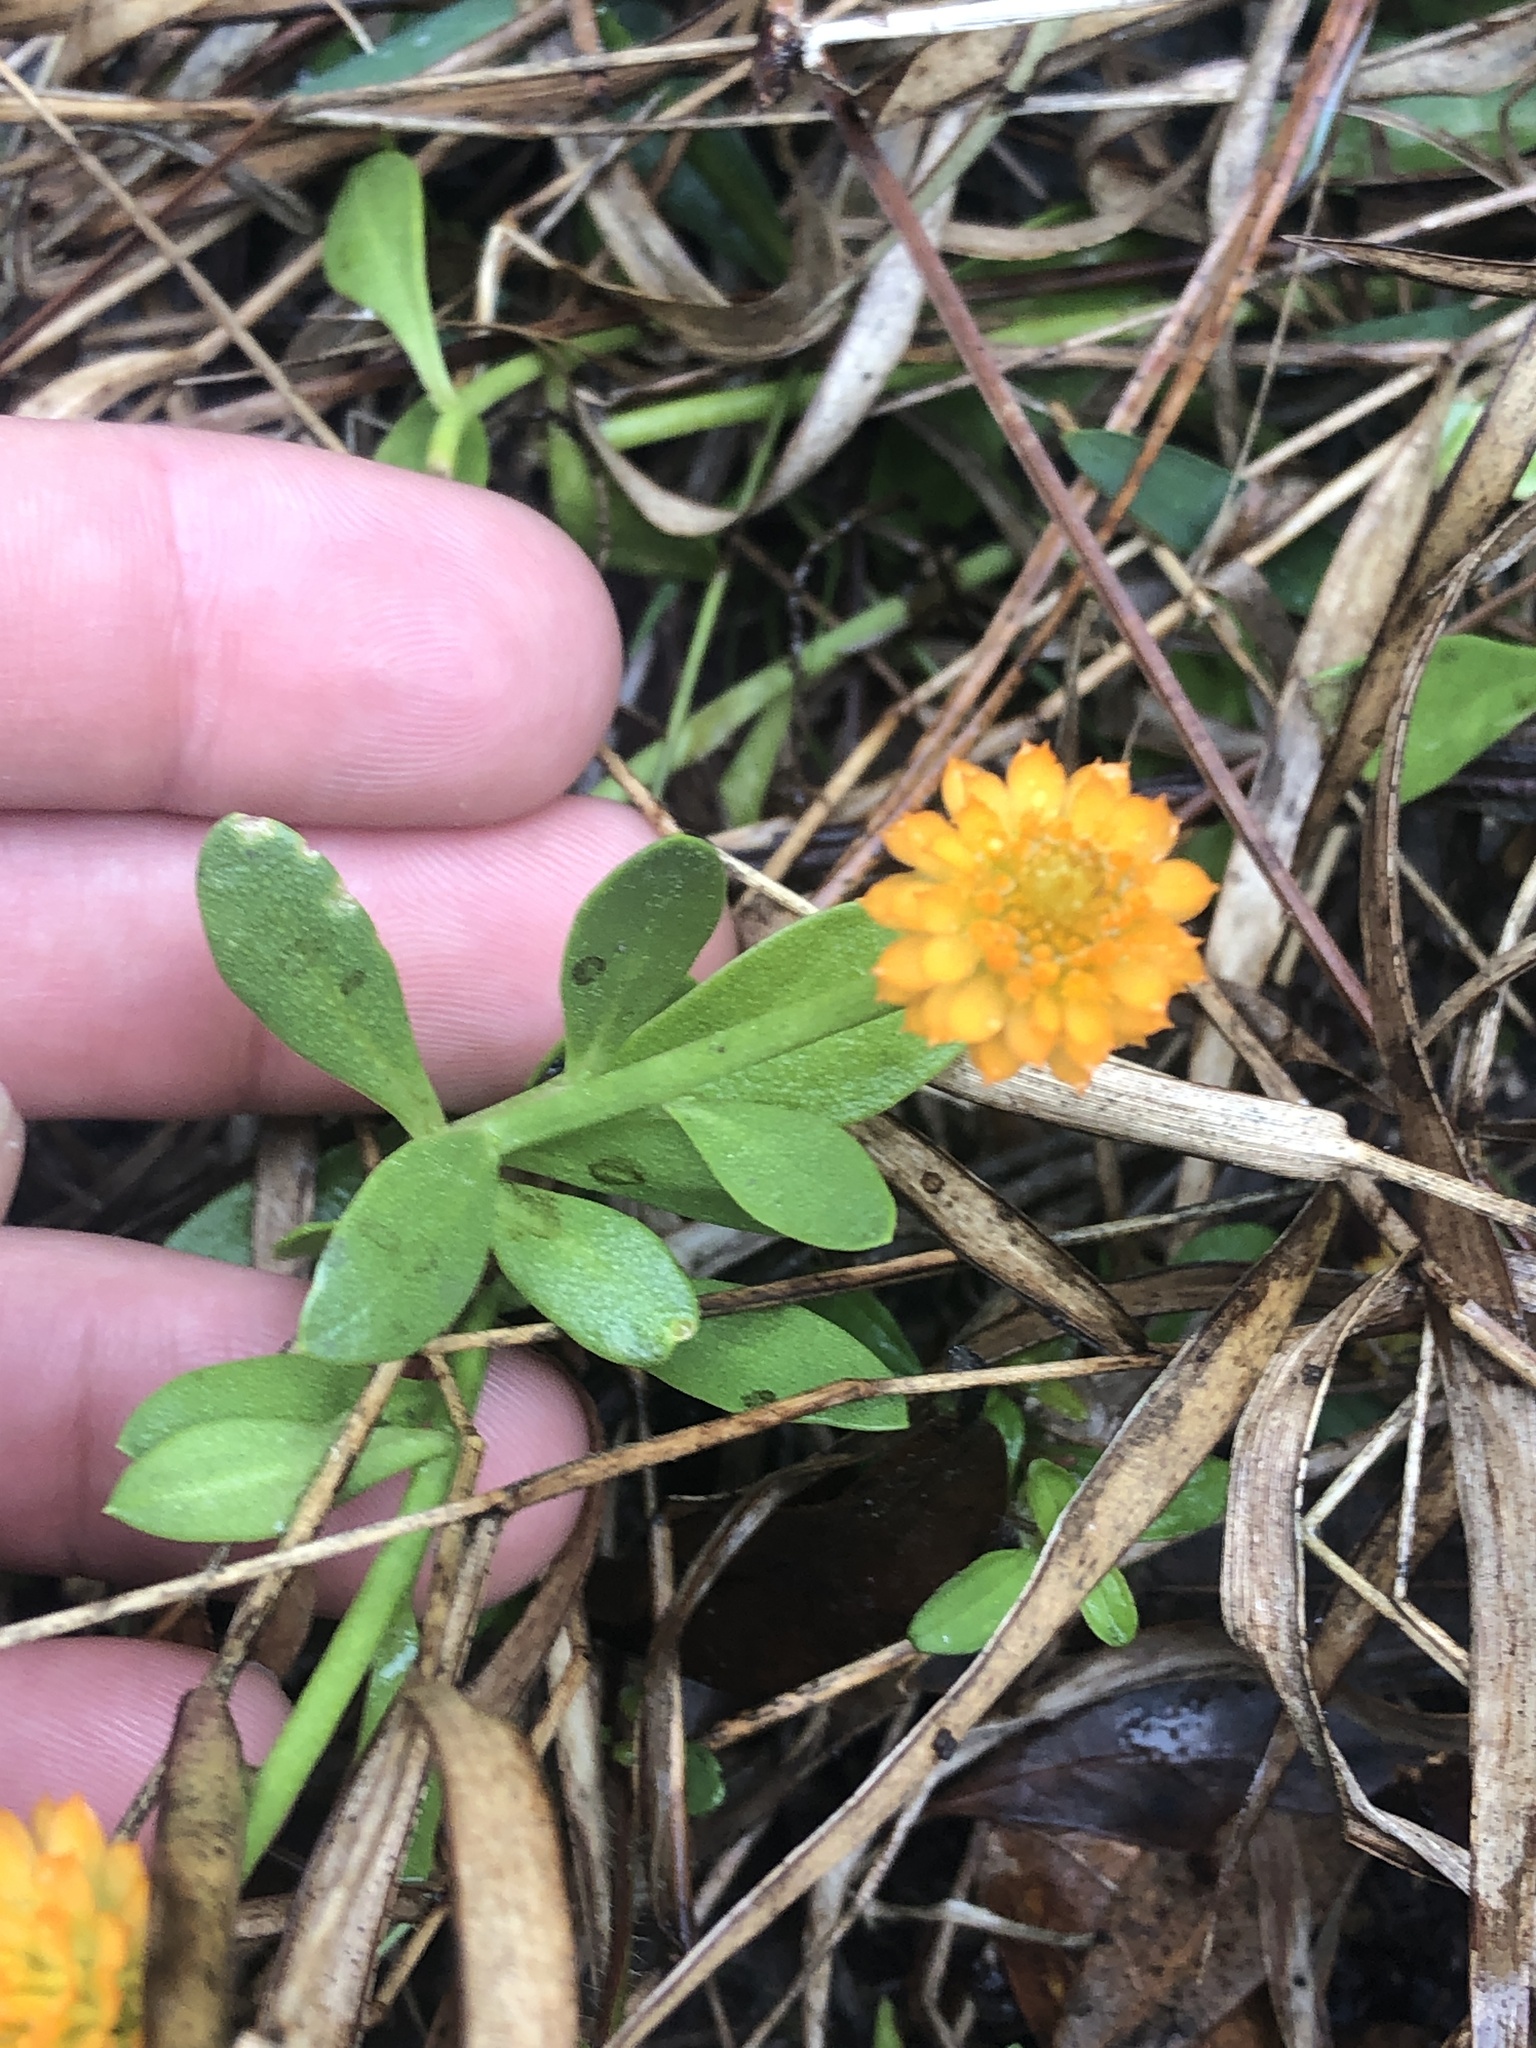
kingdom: Plantae
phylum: Tracheophyta
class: Magnoliopsida
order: Fabales
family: Polygalaceae
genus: Polygala
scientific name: Polygala lutea
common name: Orange milkwort
